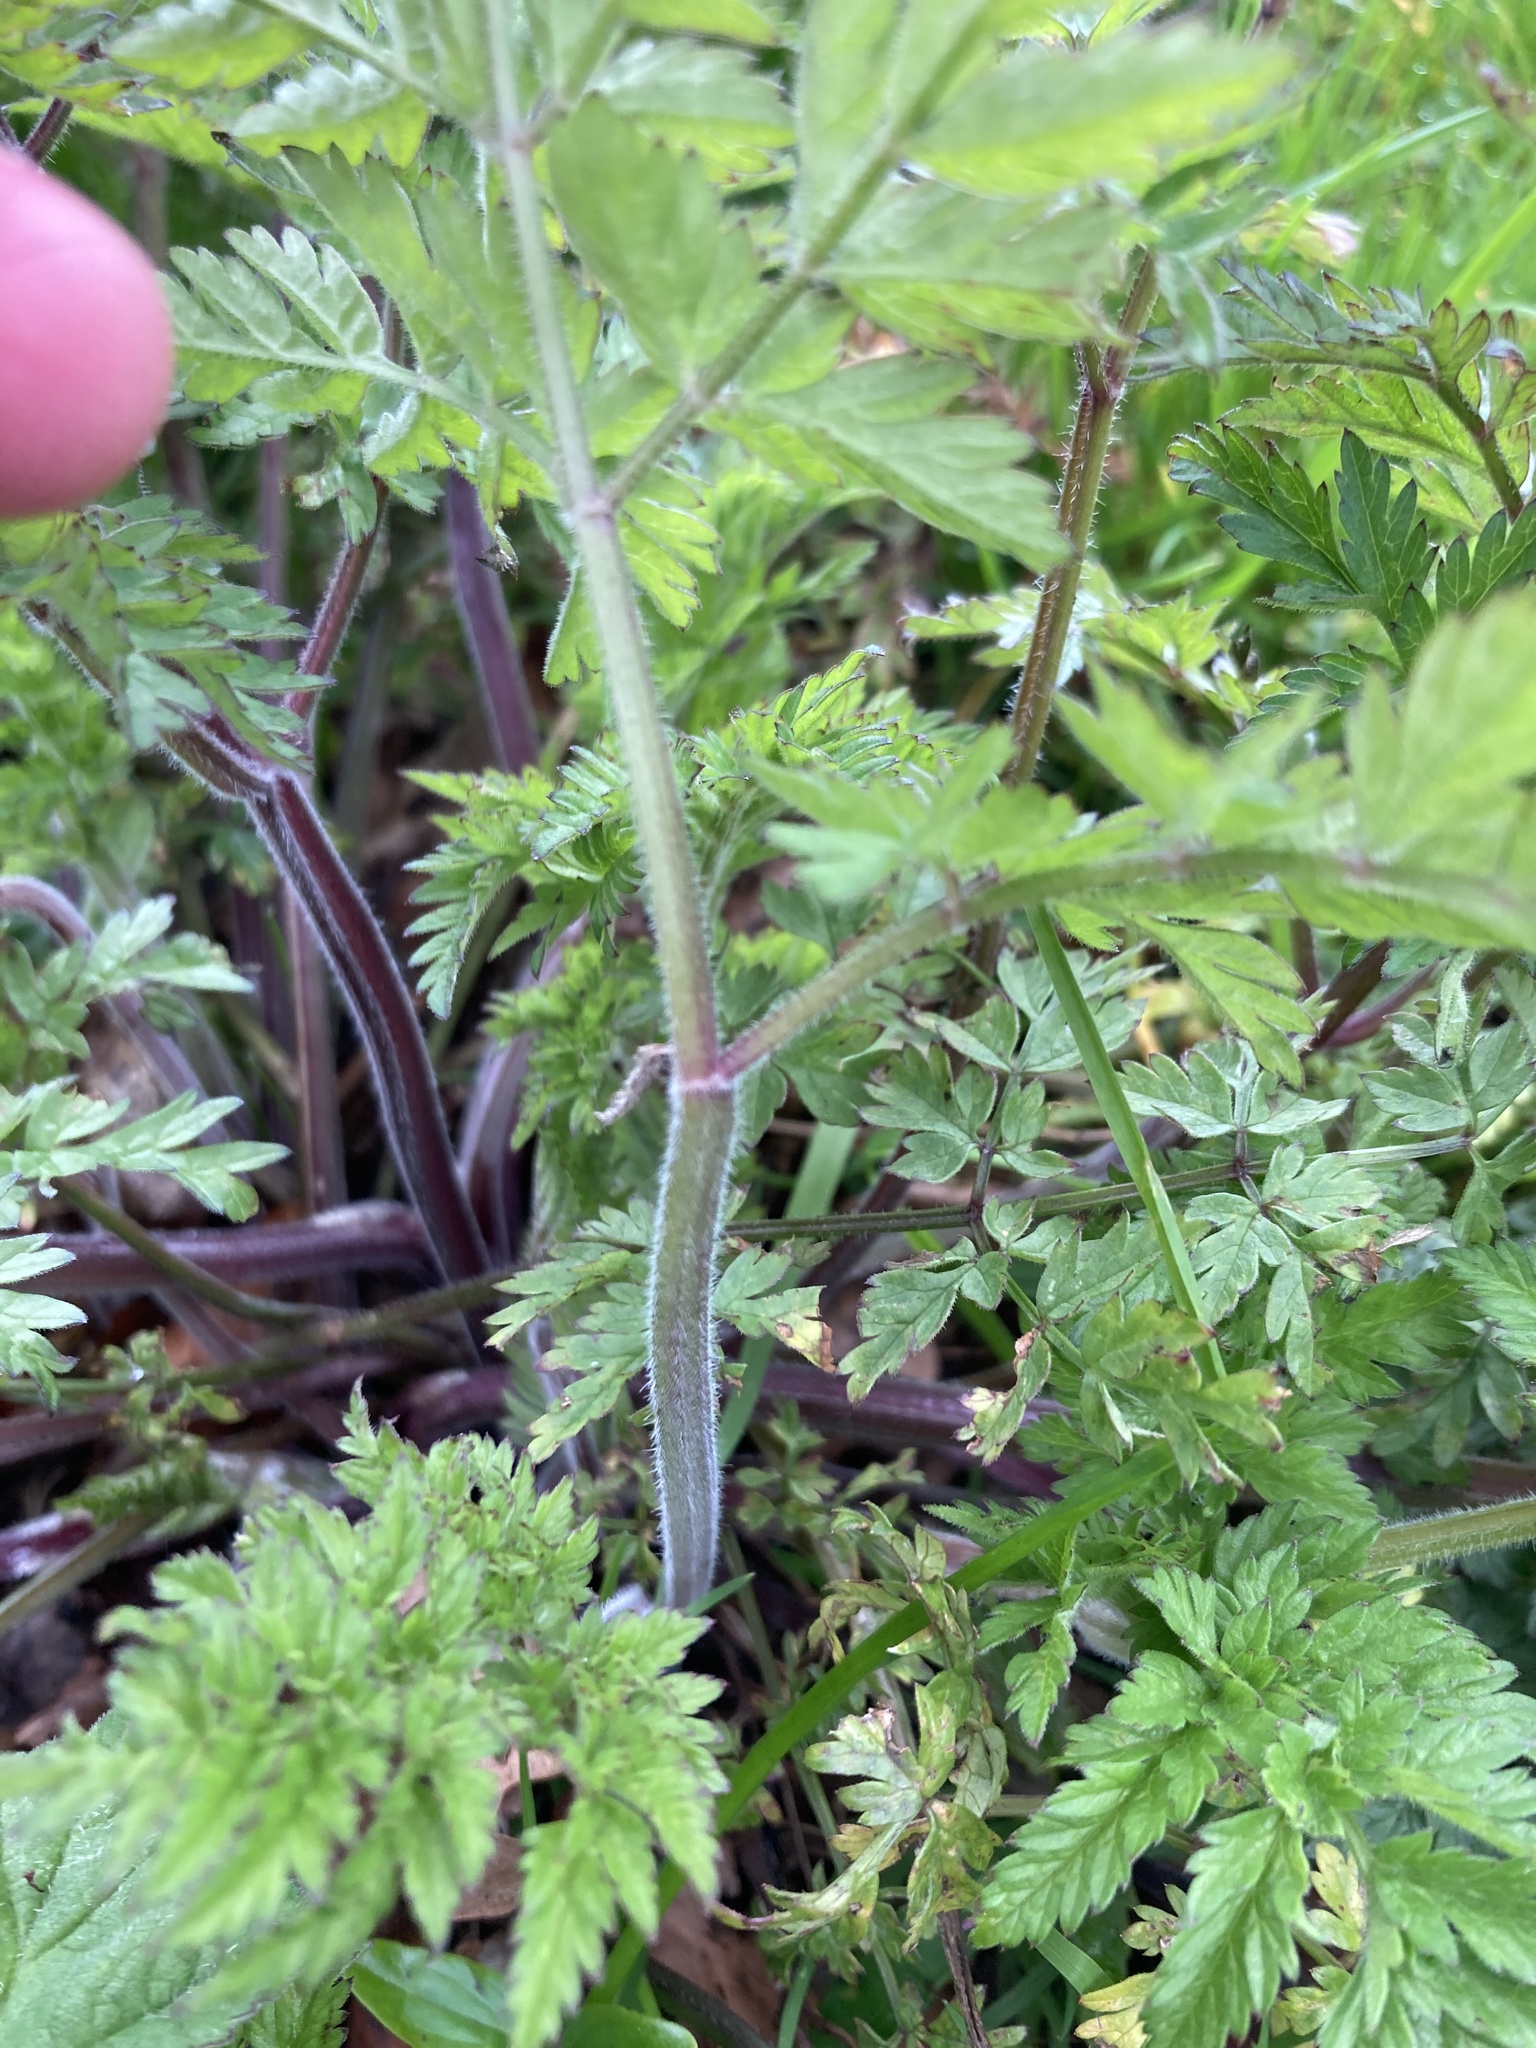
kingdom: Plantae
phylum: Tracheophyta
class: Magnoliopsida
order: Apiales
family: Apiaceae
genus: Anthriscus
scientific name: Anthriscus sylvestris
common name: Cow parsley
